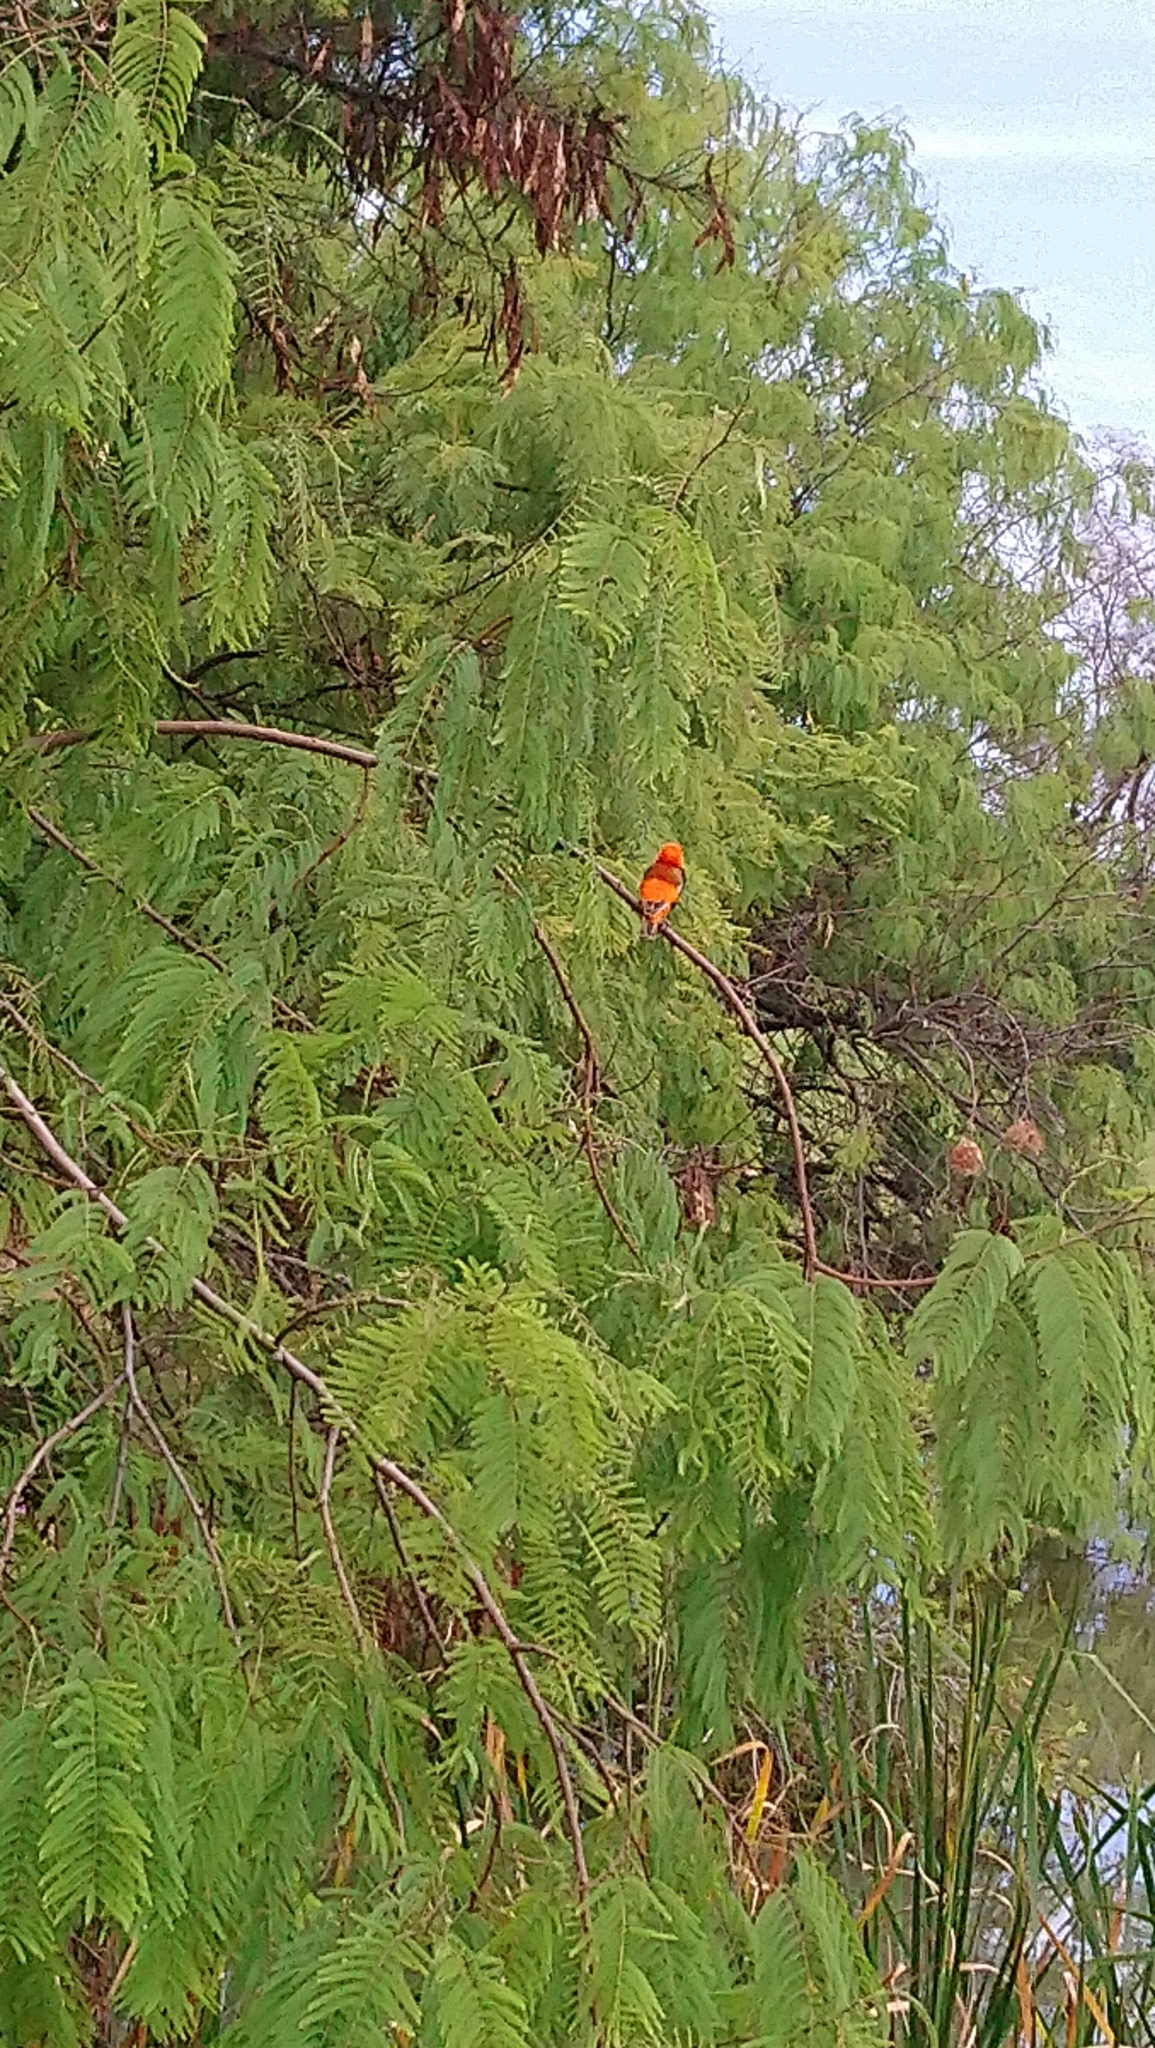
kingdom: Animalia
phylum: Chordata
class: Aves
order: Passeriformes
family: Ploceidae
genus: Euplectes
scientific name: Euplectes orix
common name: Southern red bishop
